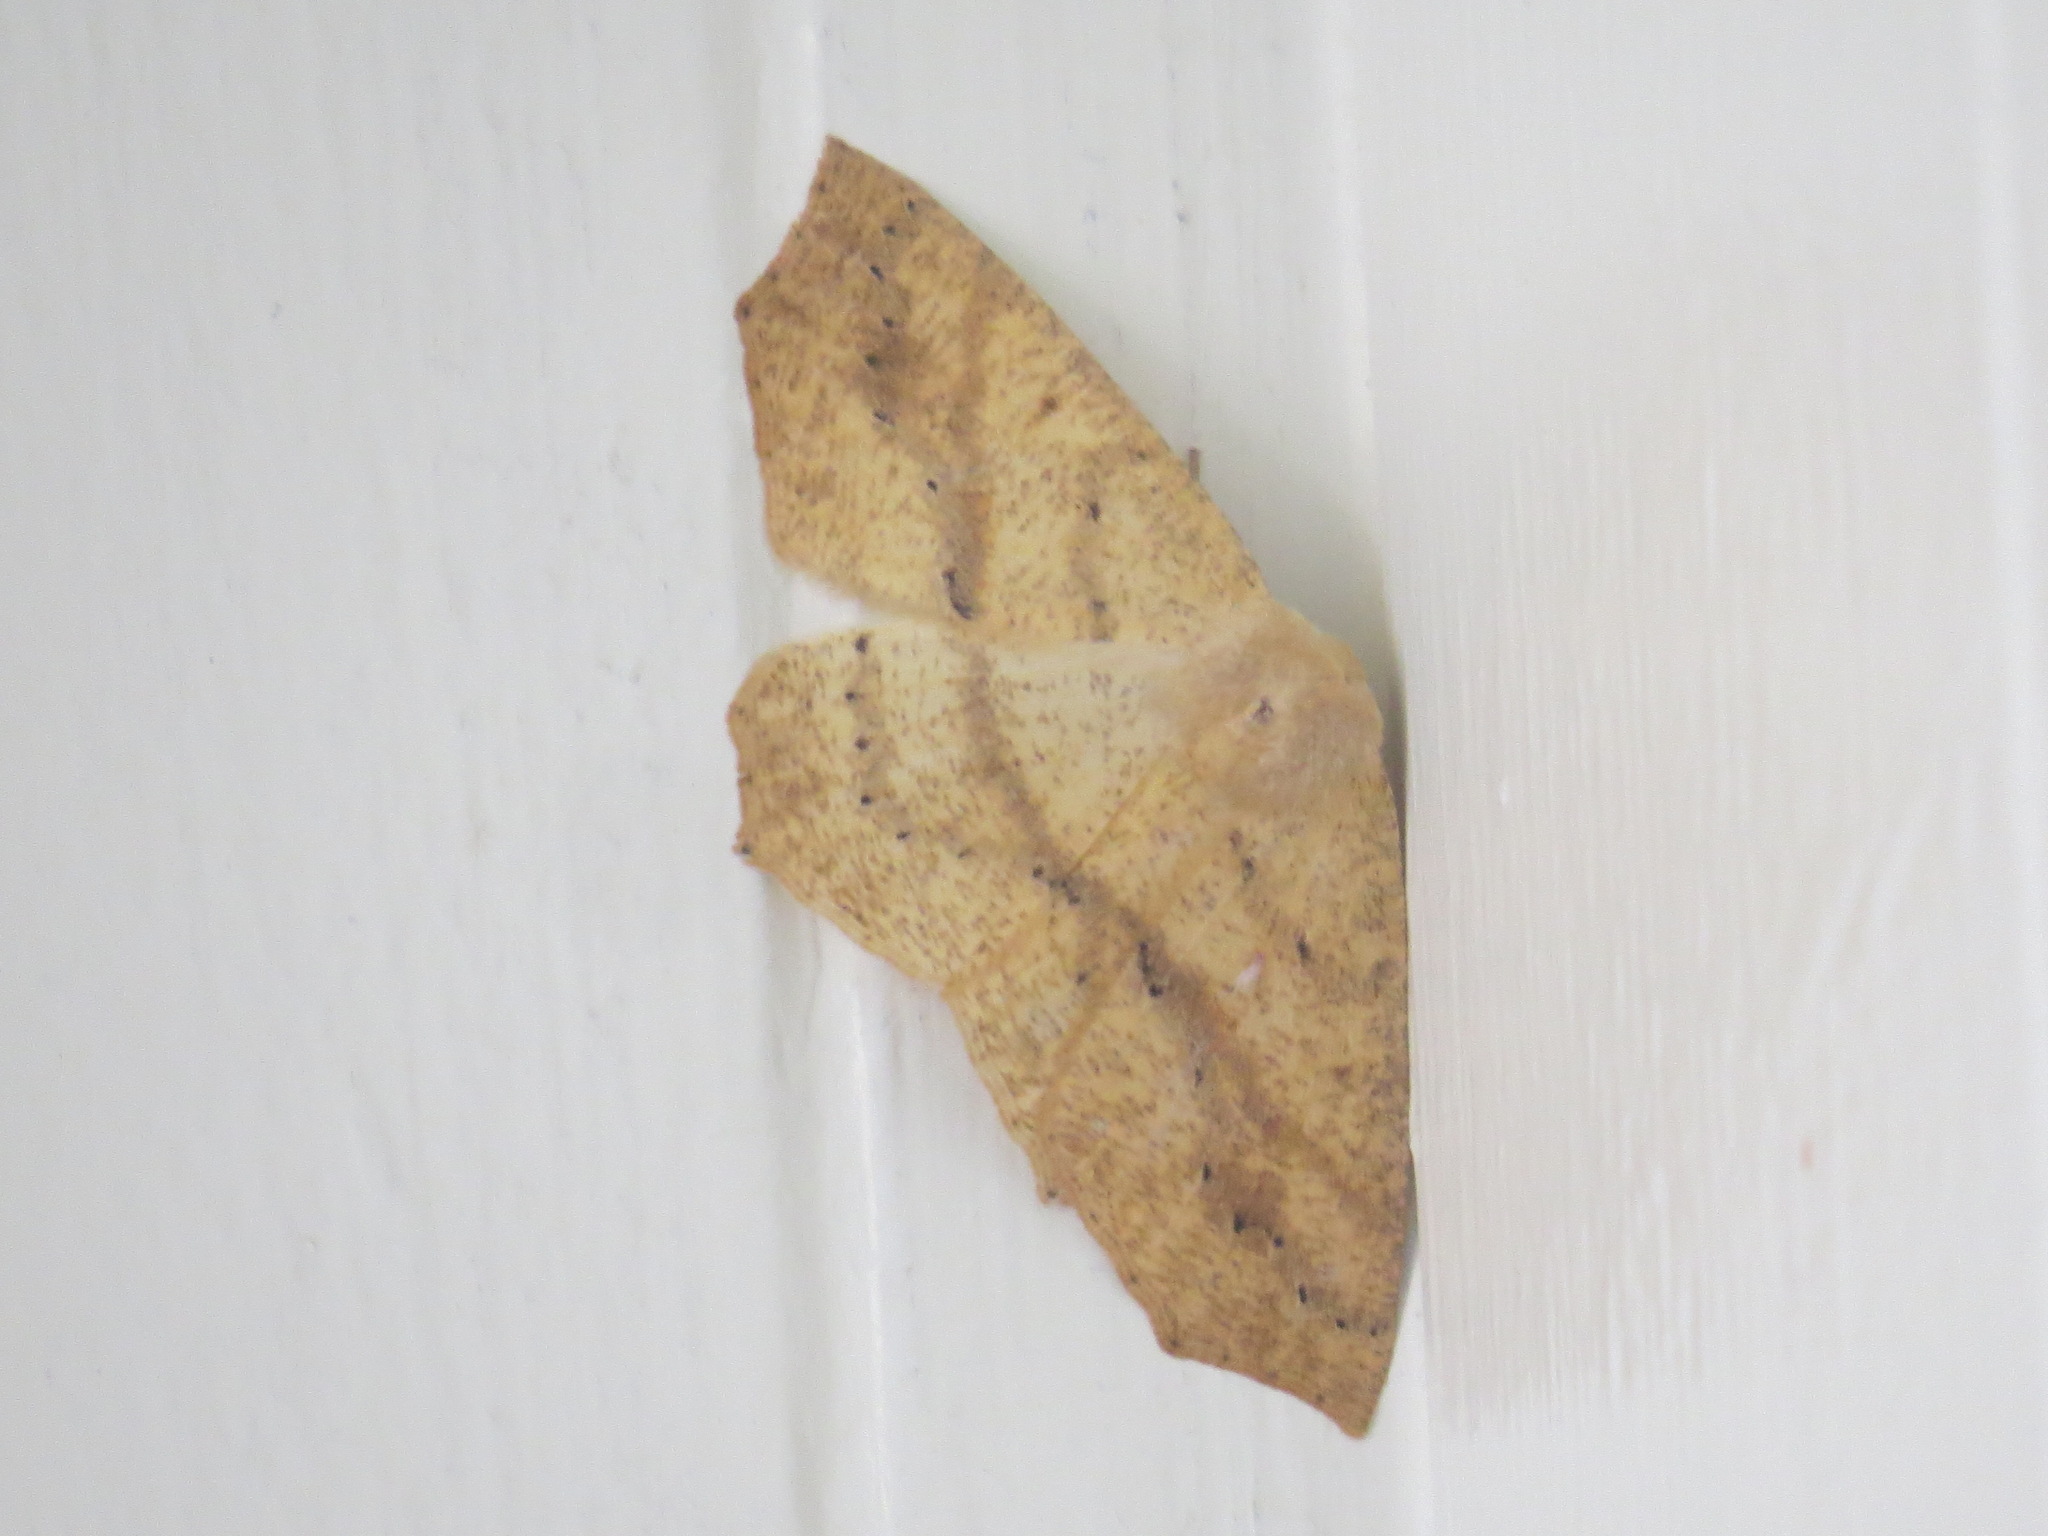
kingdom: Animalia
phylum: Arthropoda
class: Insecta
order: Lepidoptera
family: Geometridae
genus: Sabulodes
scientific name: Sabulodes aegrotata
